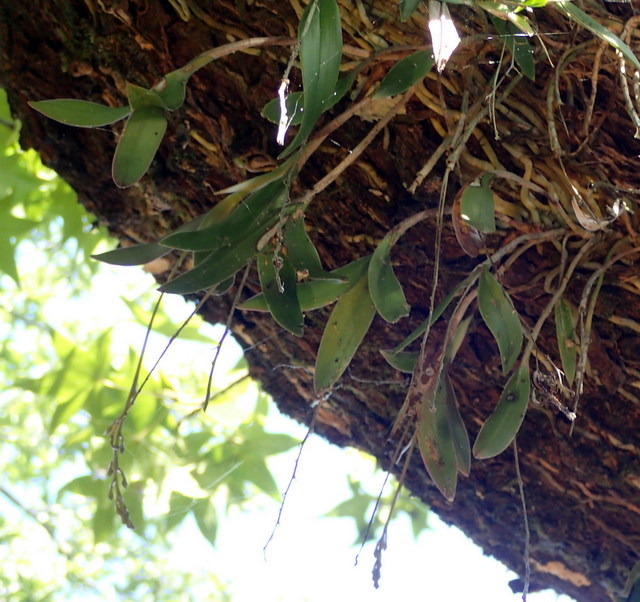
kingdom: Plantae
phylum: Tracheophyta
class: Liliopsida
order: Asparagales
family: Orchidaceae
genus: Epidendrum
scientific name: Epidendrum conopseum
